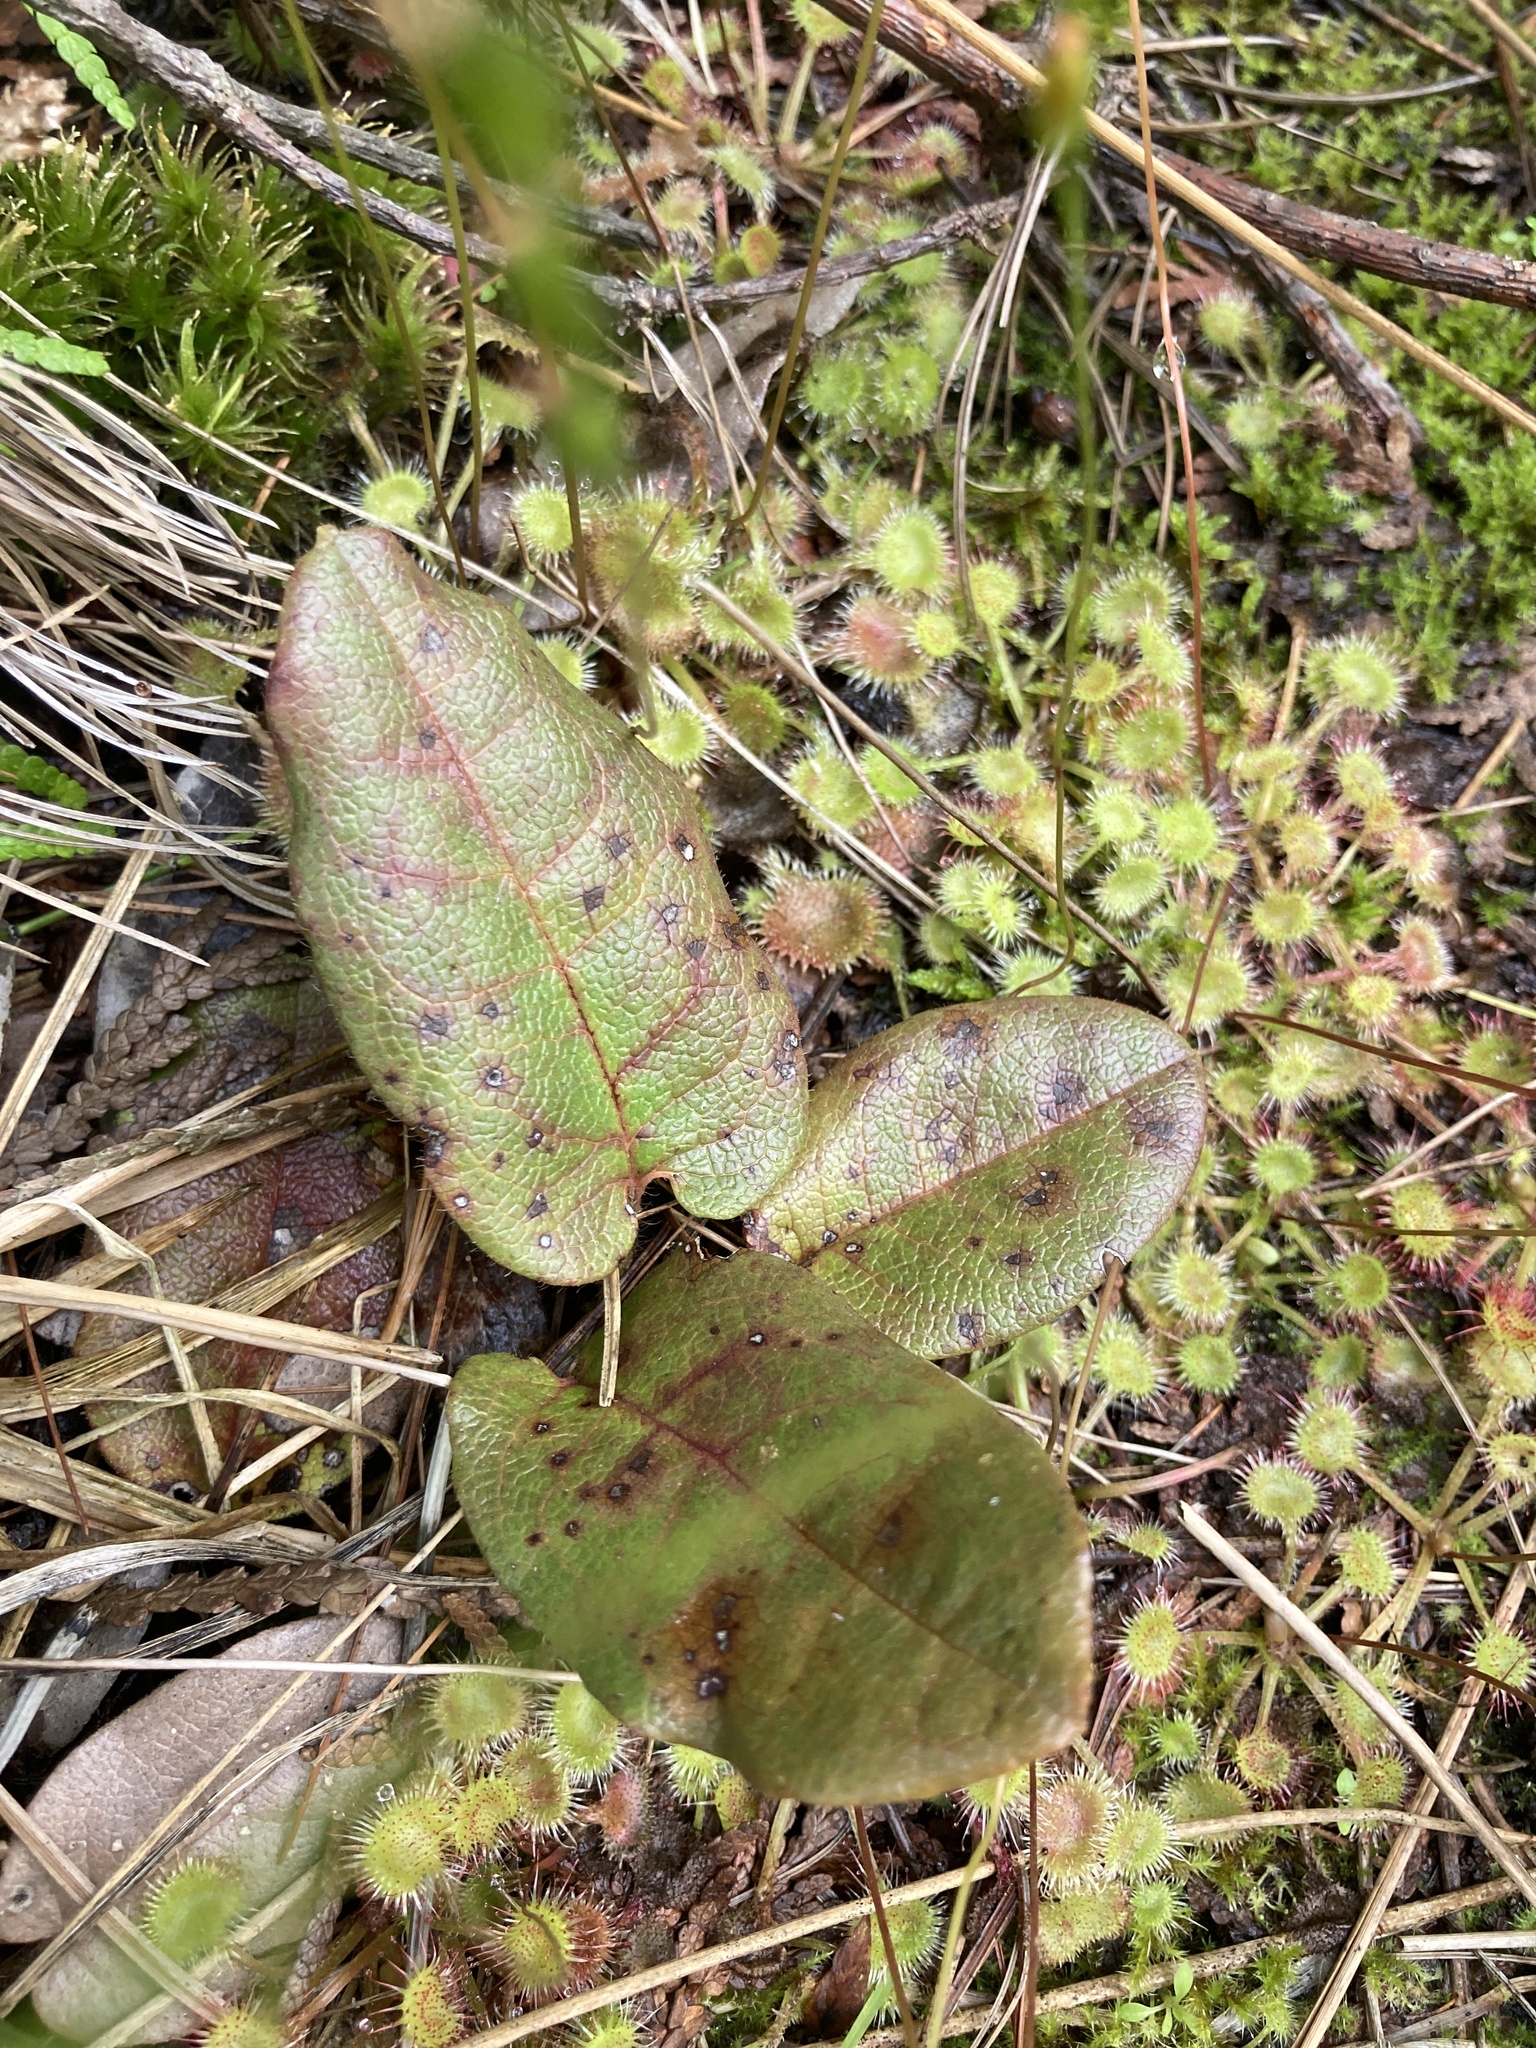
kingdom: Plantae
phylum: Tracheophyta
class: Magnoliopsida
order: Ericales
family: Ericaceae
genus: Epigaea
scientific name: Epigaea repens
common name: Gravelroot
